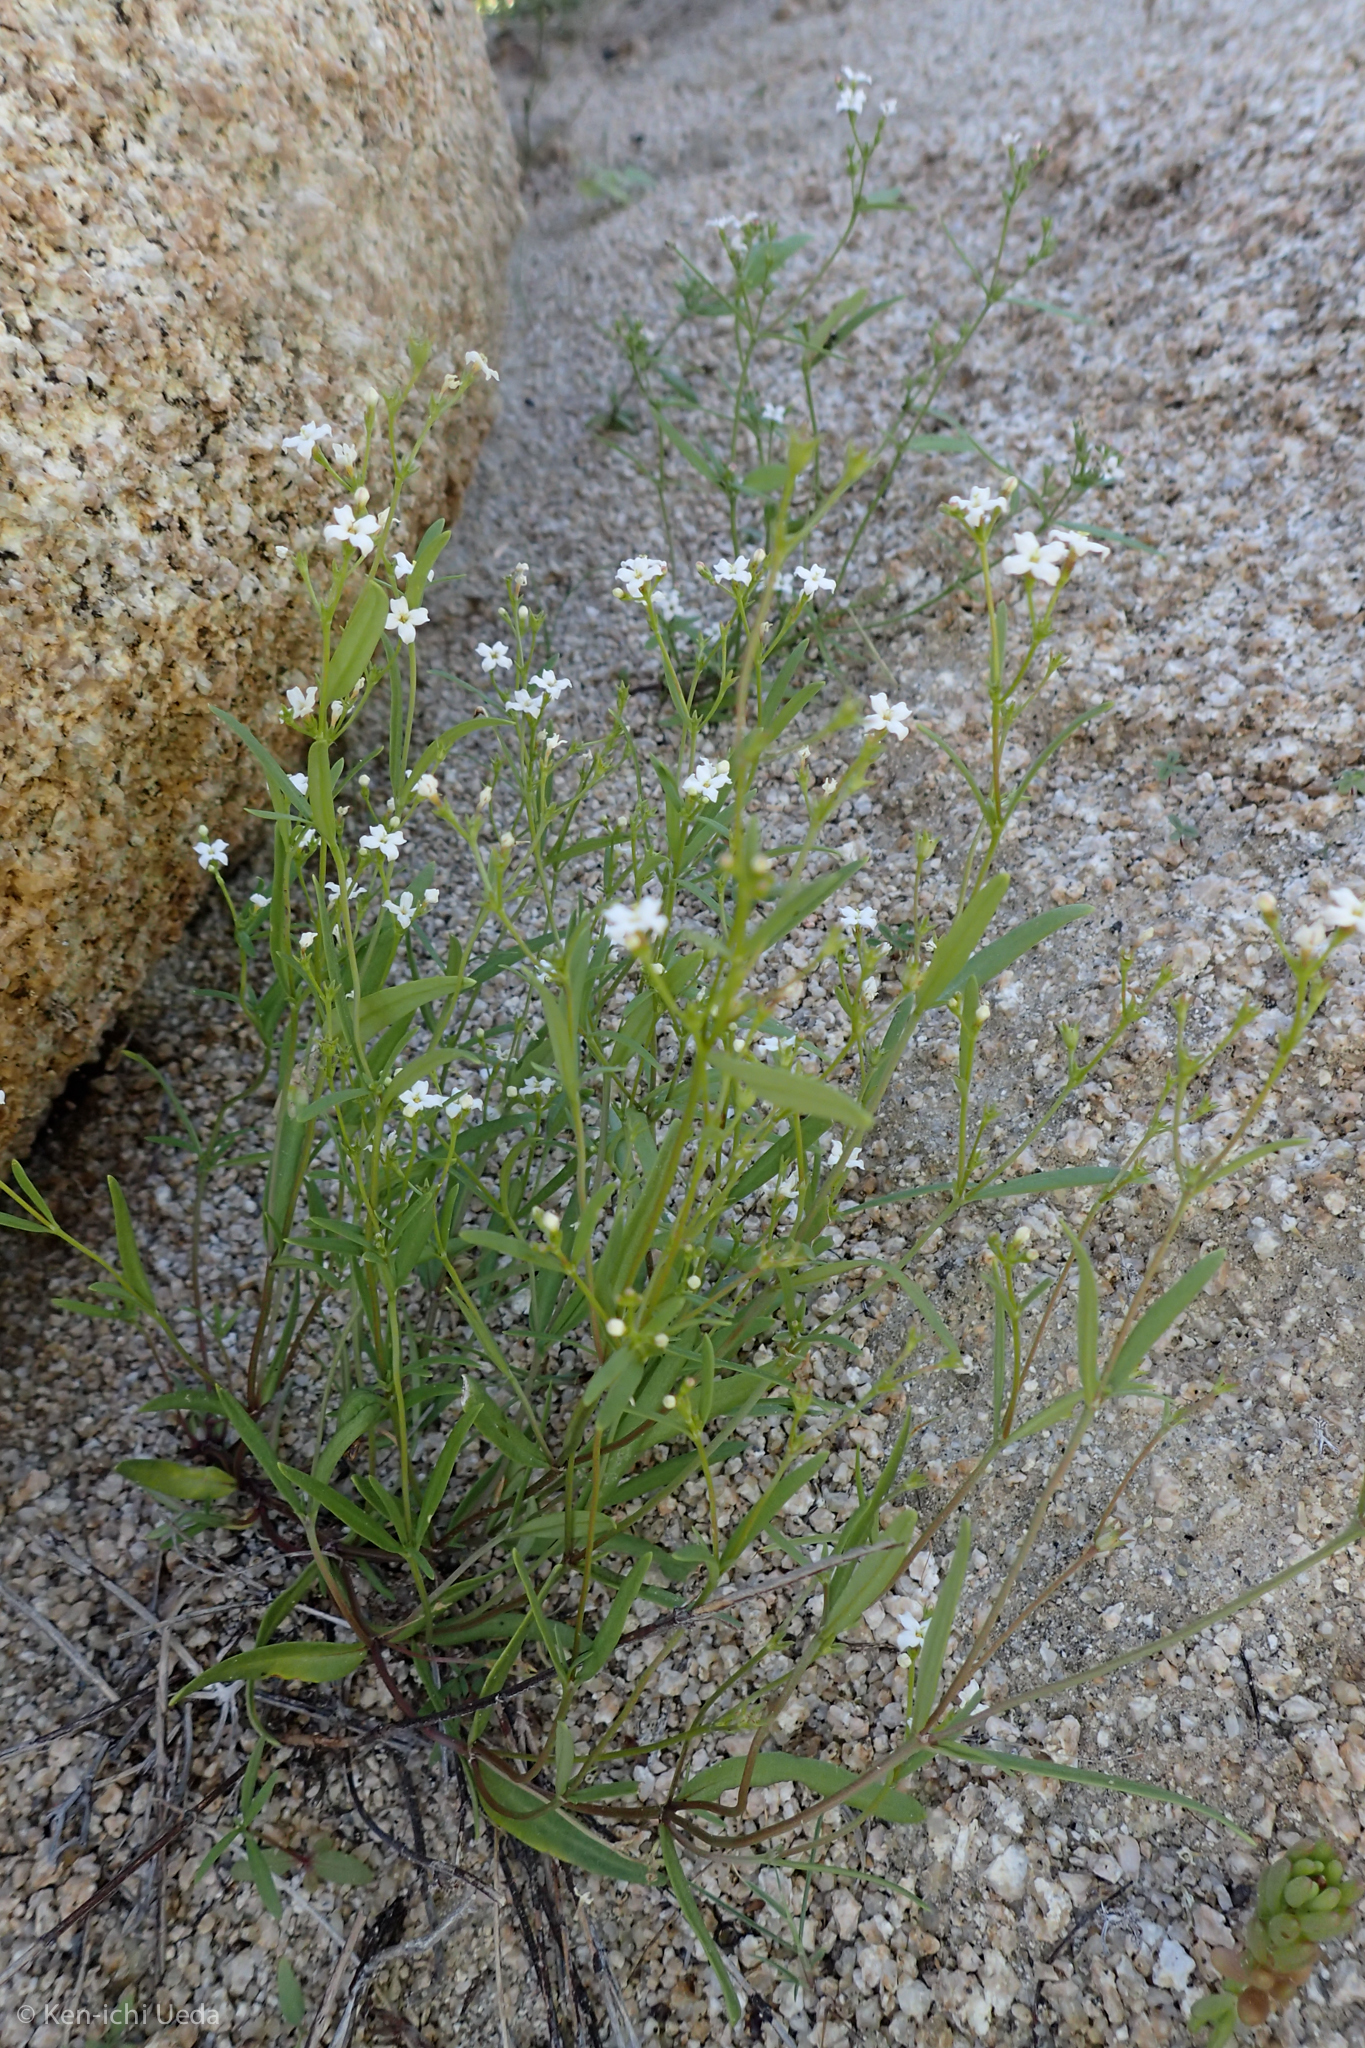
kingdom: Plantae
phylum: Tracheophyta
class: Magnoliopsida
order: Gentianales
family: Rubiaceae
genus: Stenotis
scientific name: Stenotis arenaria
